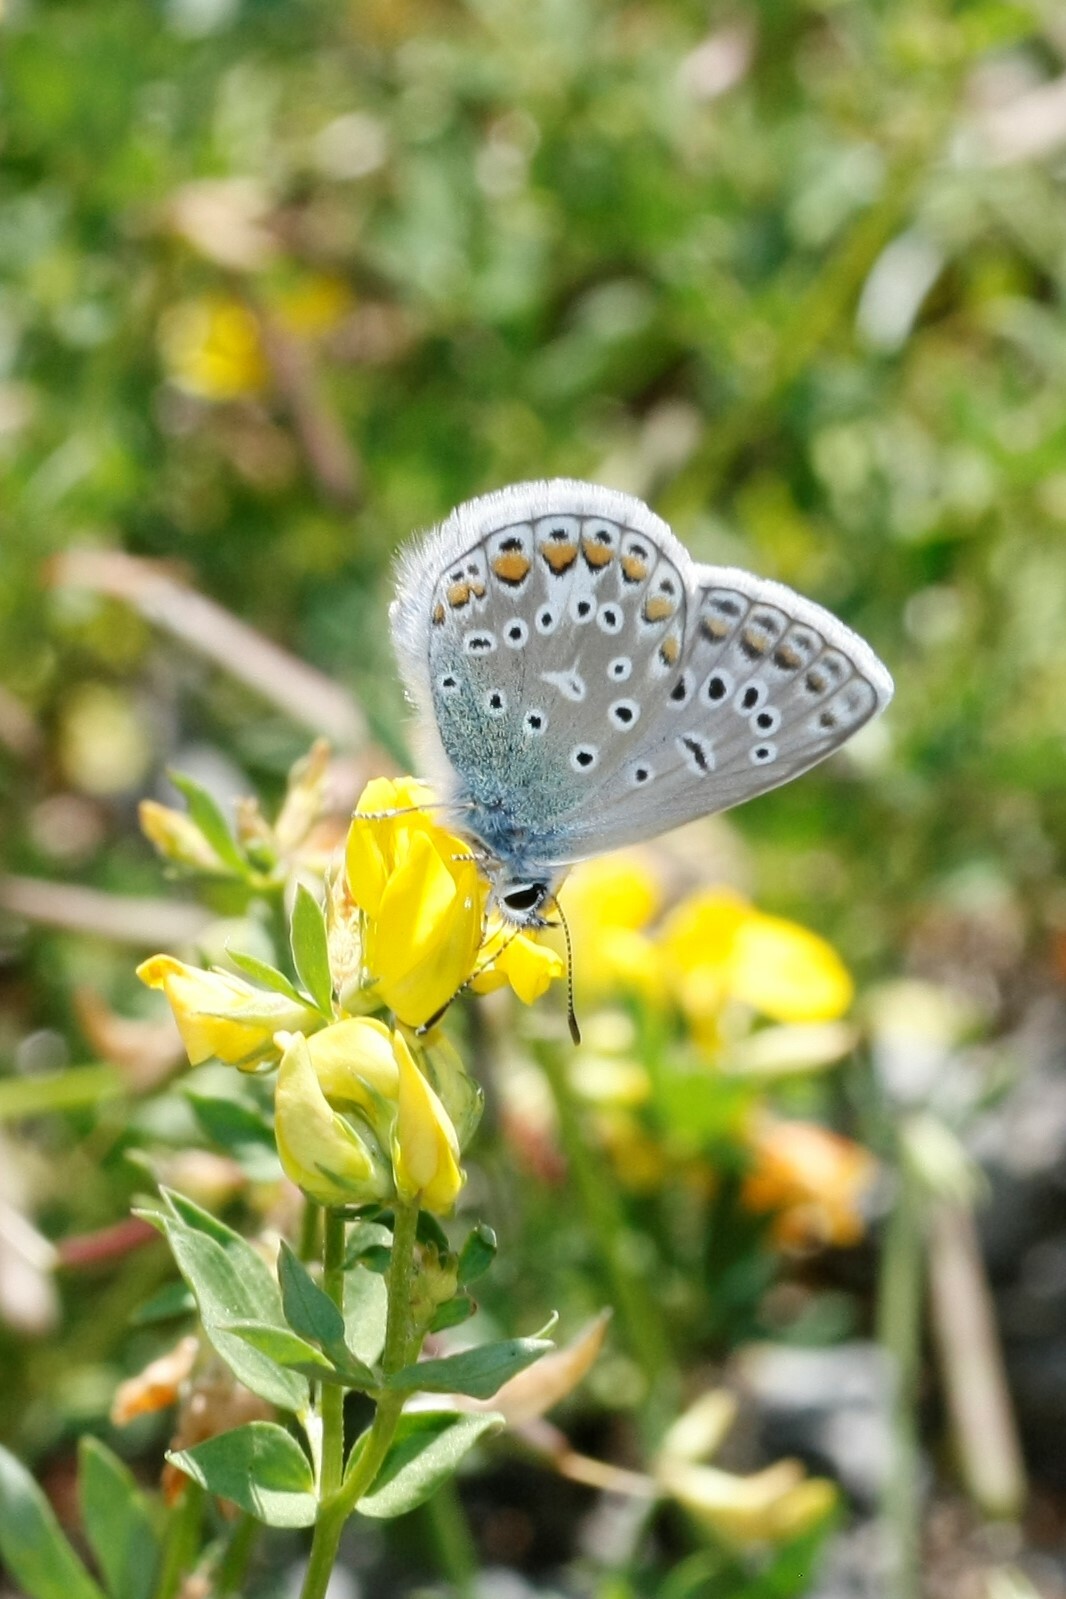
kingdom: Animalia
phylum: Arthropoda
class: Insecta
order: Lepidoptera
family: Lycaenidae
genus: Polyommatus
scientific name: Polyommatus icarus
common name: Common blue
